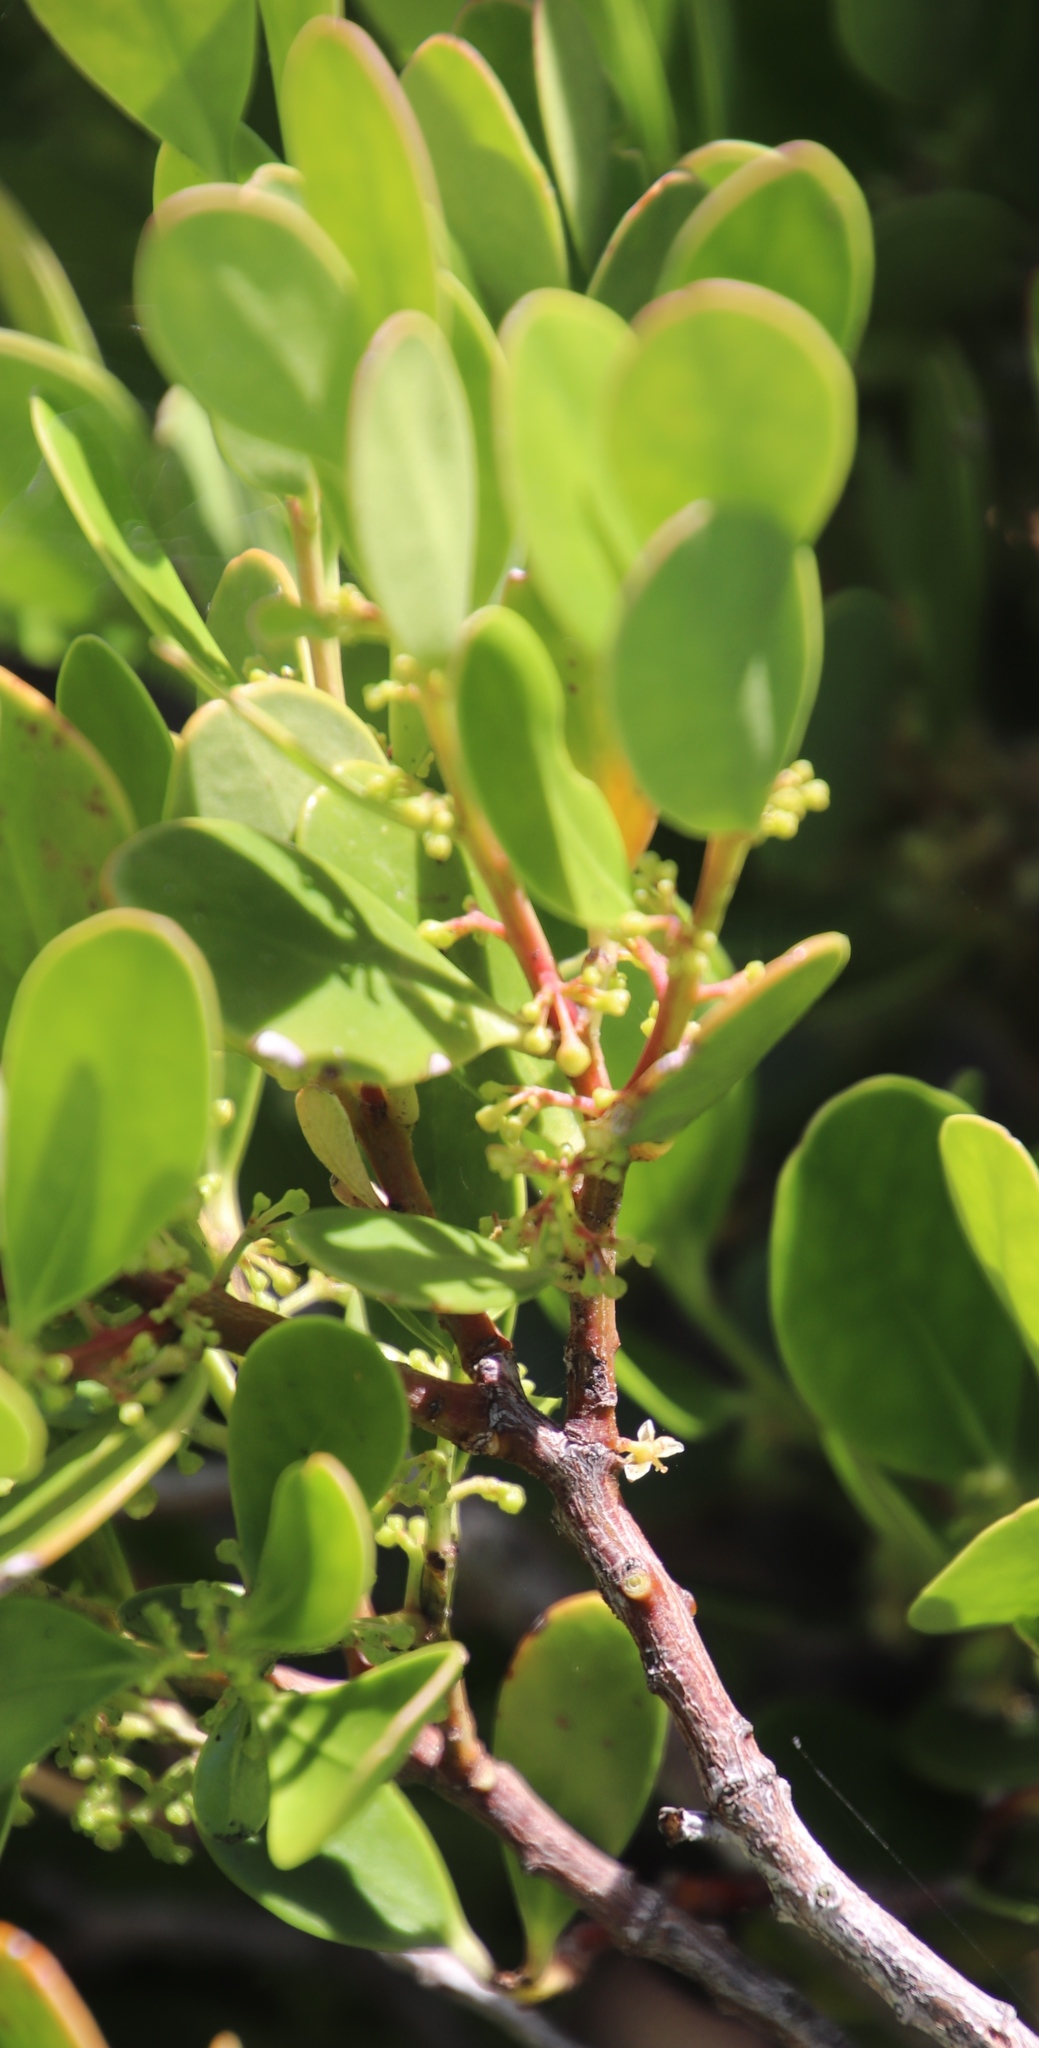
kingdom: Plantae
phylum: Tracheophyta
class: Magnoliopsida
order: Celastrales
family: Celastraceae
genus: Pterocelastrus
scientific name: Pterocelastrus tricuspidatus
